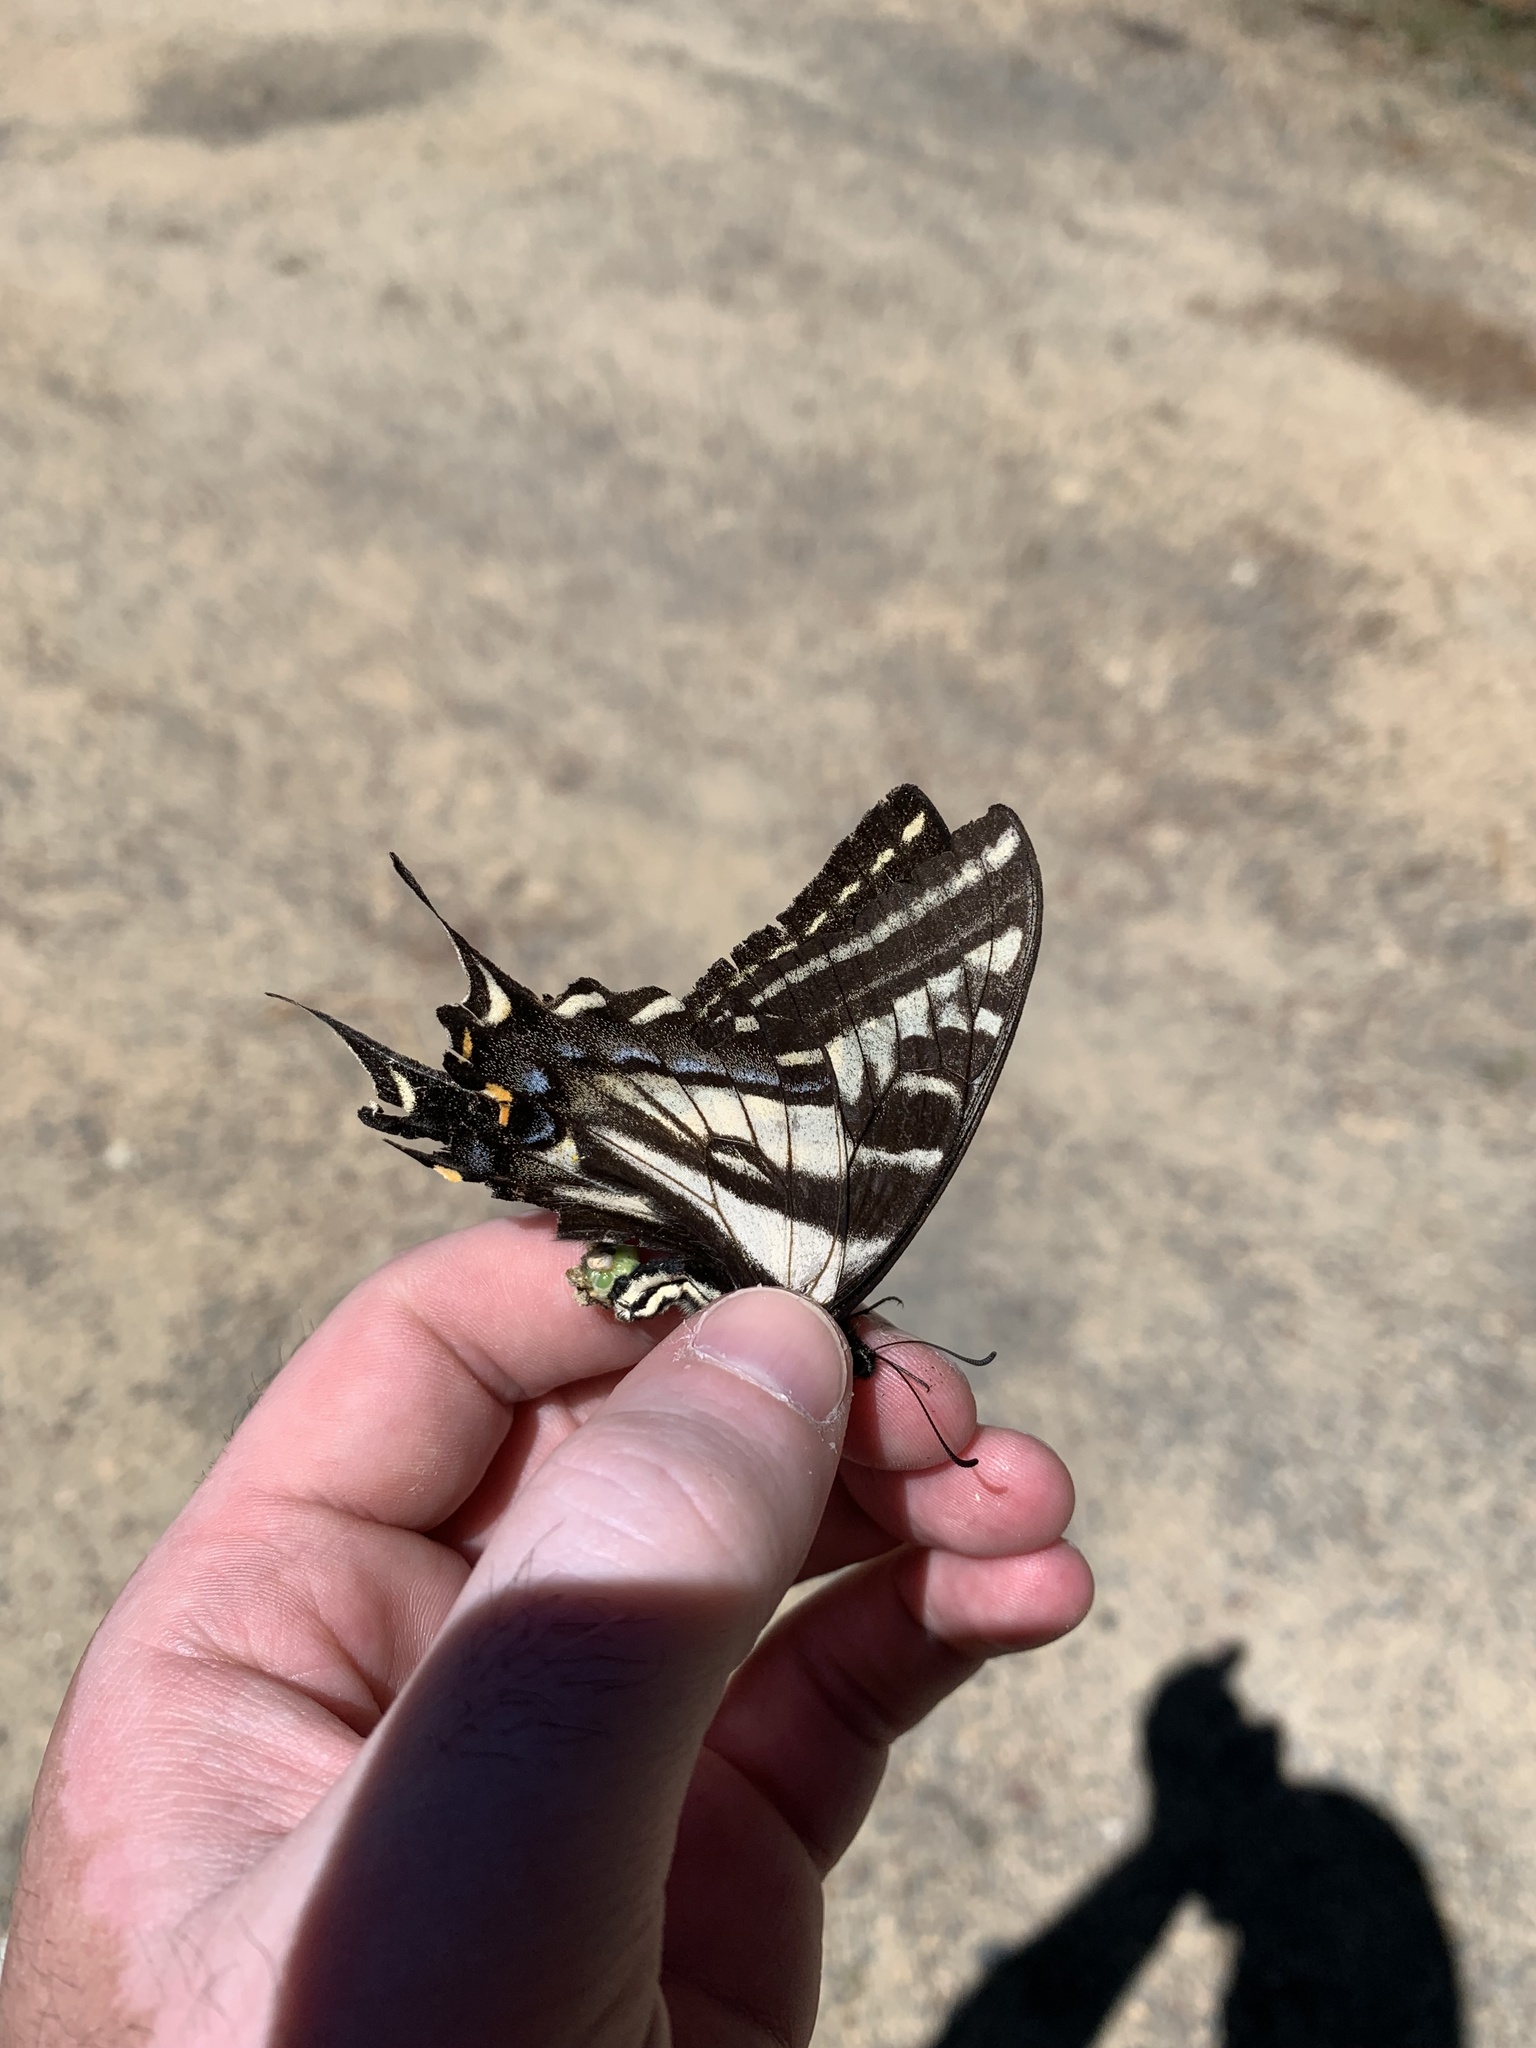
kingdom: Animalia
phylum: Arthropoda
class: Insecta
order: Lepidoptera
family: Papilionidae
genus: Papilio
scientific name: Papilio eurymedon
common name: Pale tiger swallowtail
